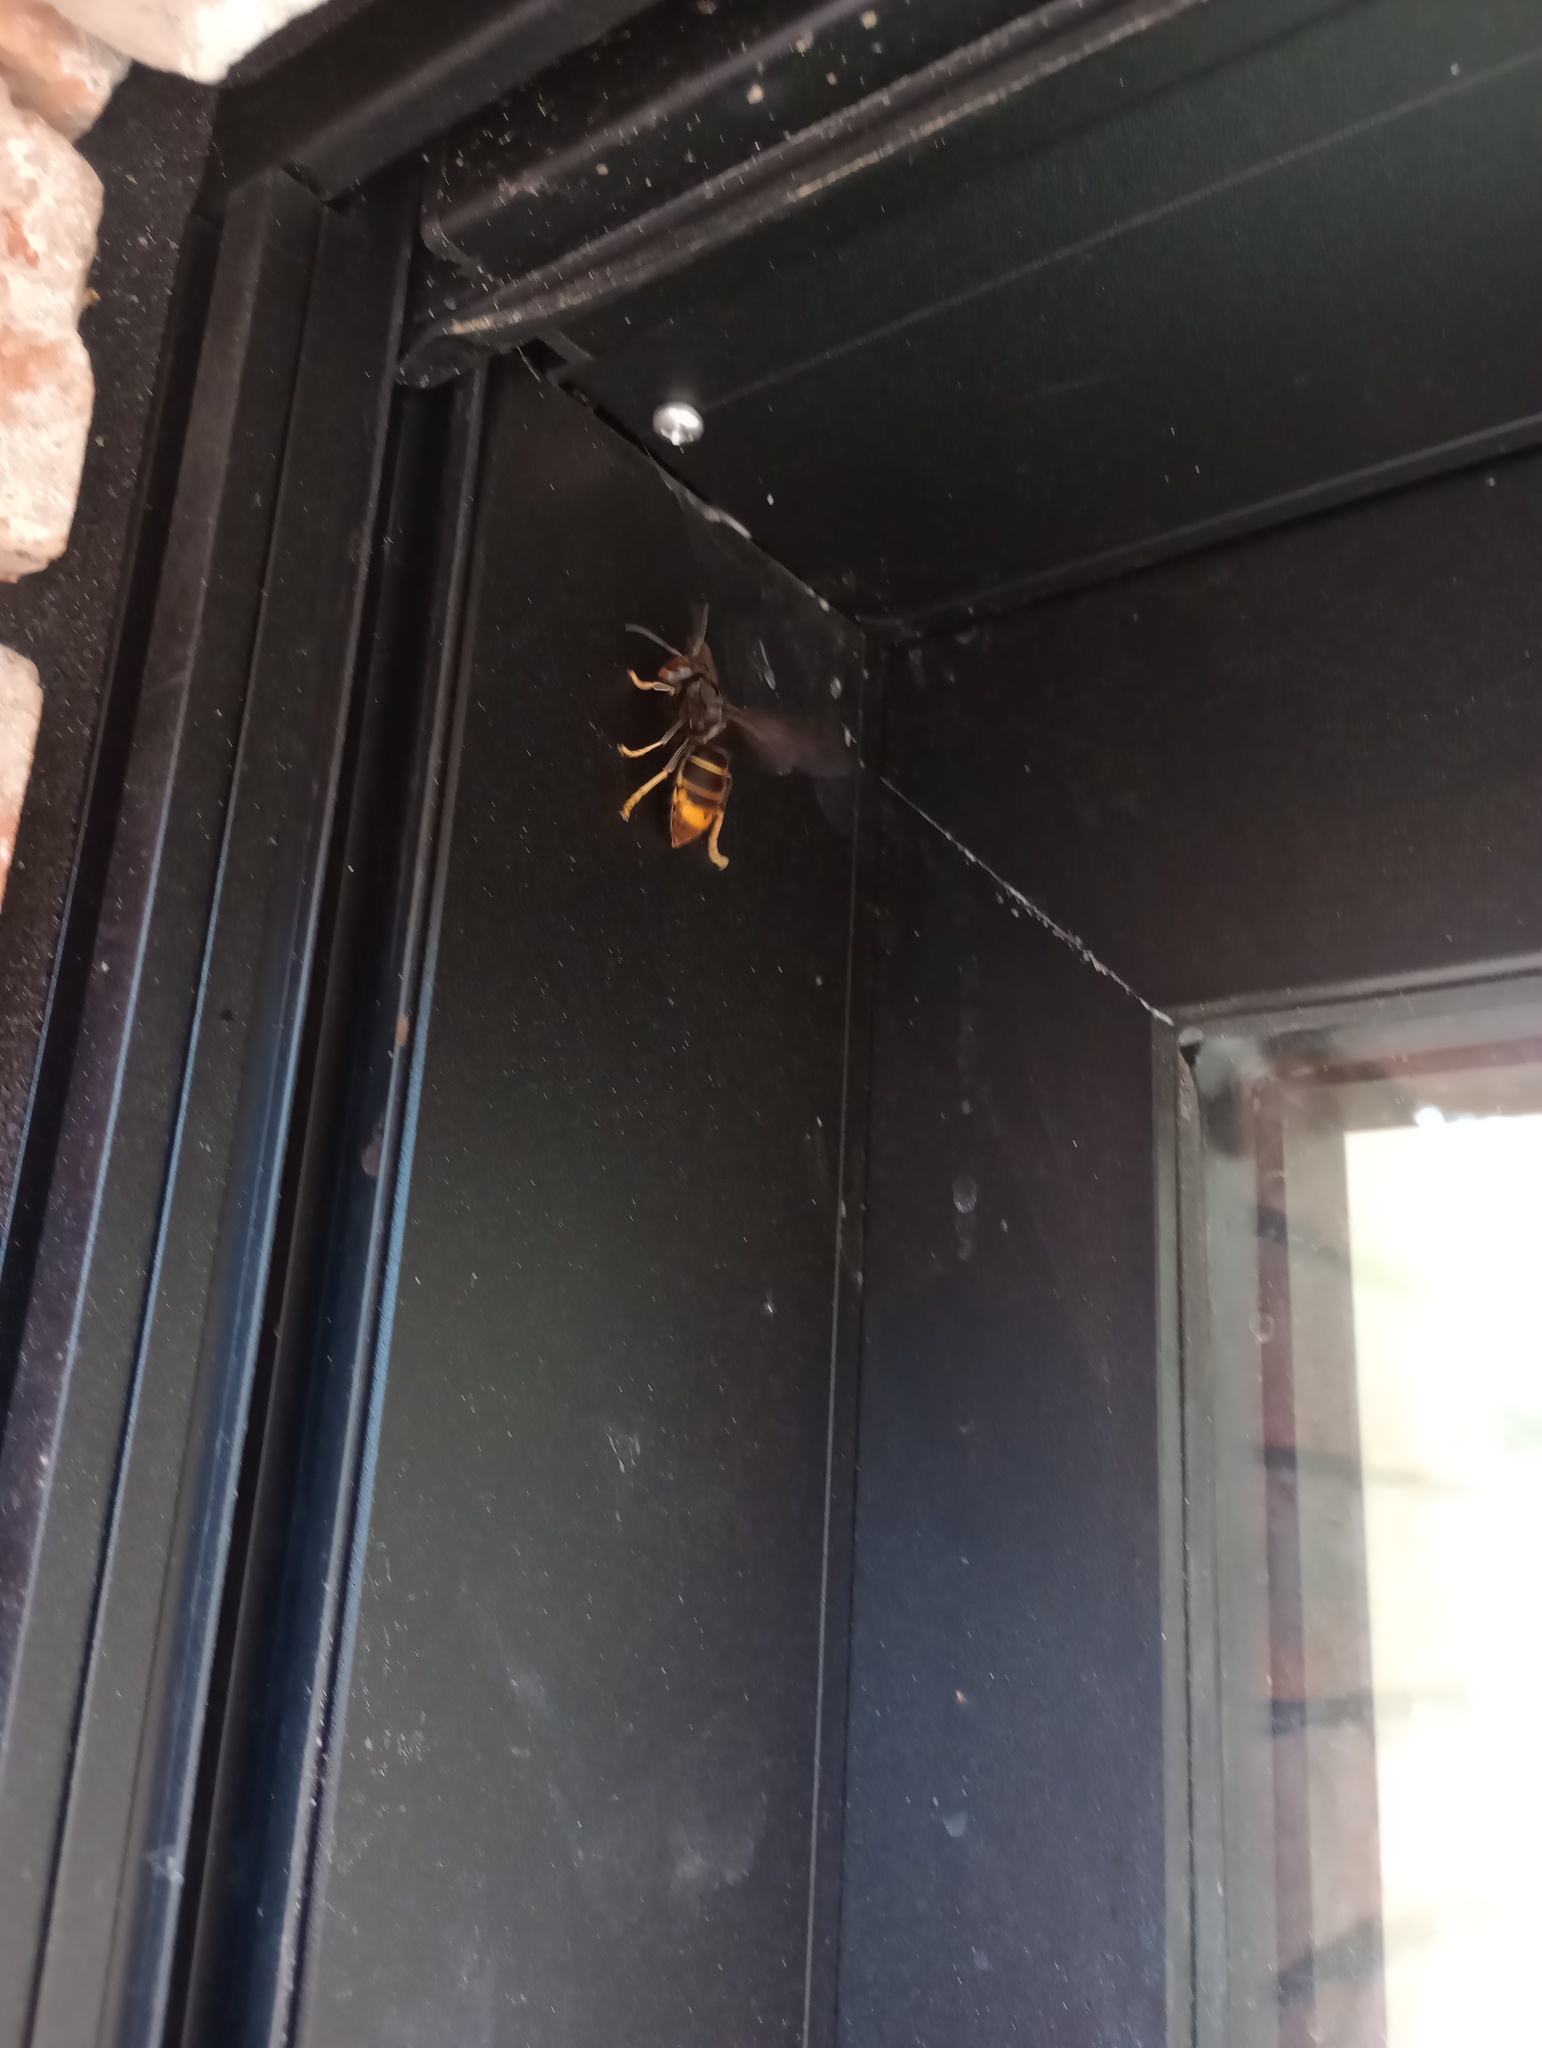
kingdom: Animalia
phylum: Arthropoda
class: Insecta
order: Hymenoptera
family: Vespidae
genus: Vespa
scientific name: Vespa velutina
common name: Asian hornet
